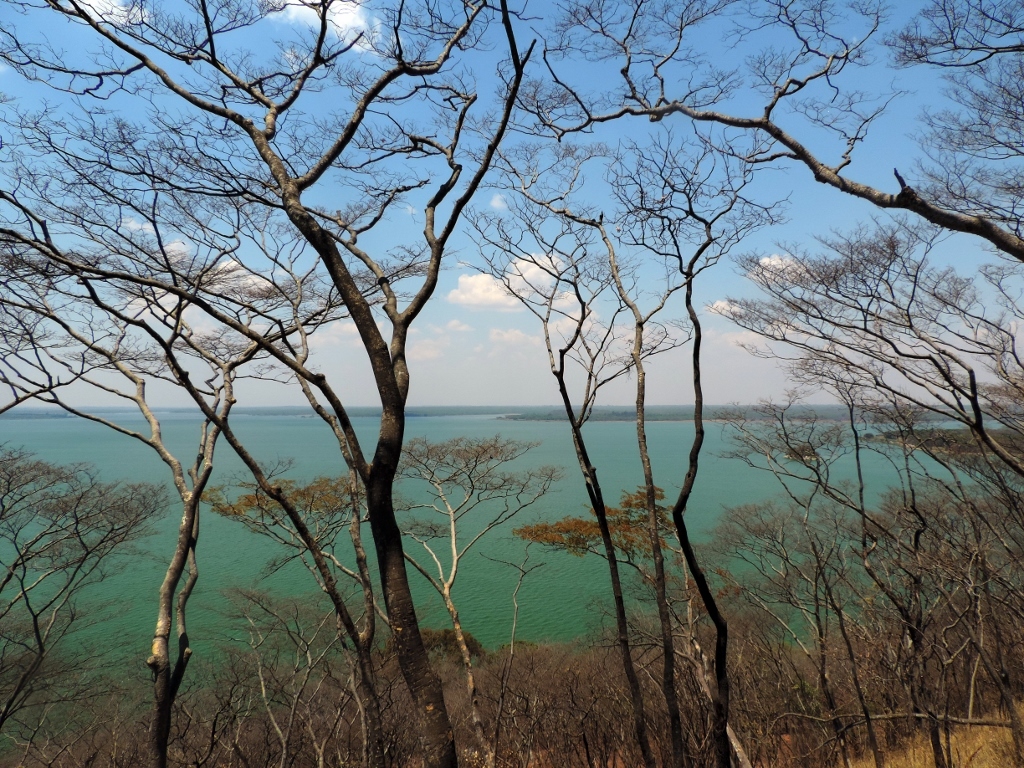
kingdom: Plantae
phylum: Tracheophyta
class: Magnoliopsida
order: Fabales
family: Fabaceae
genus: Brachystegia
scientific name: Brachystegia tamarindoides
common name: Mountain acacia
